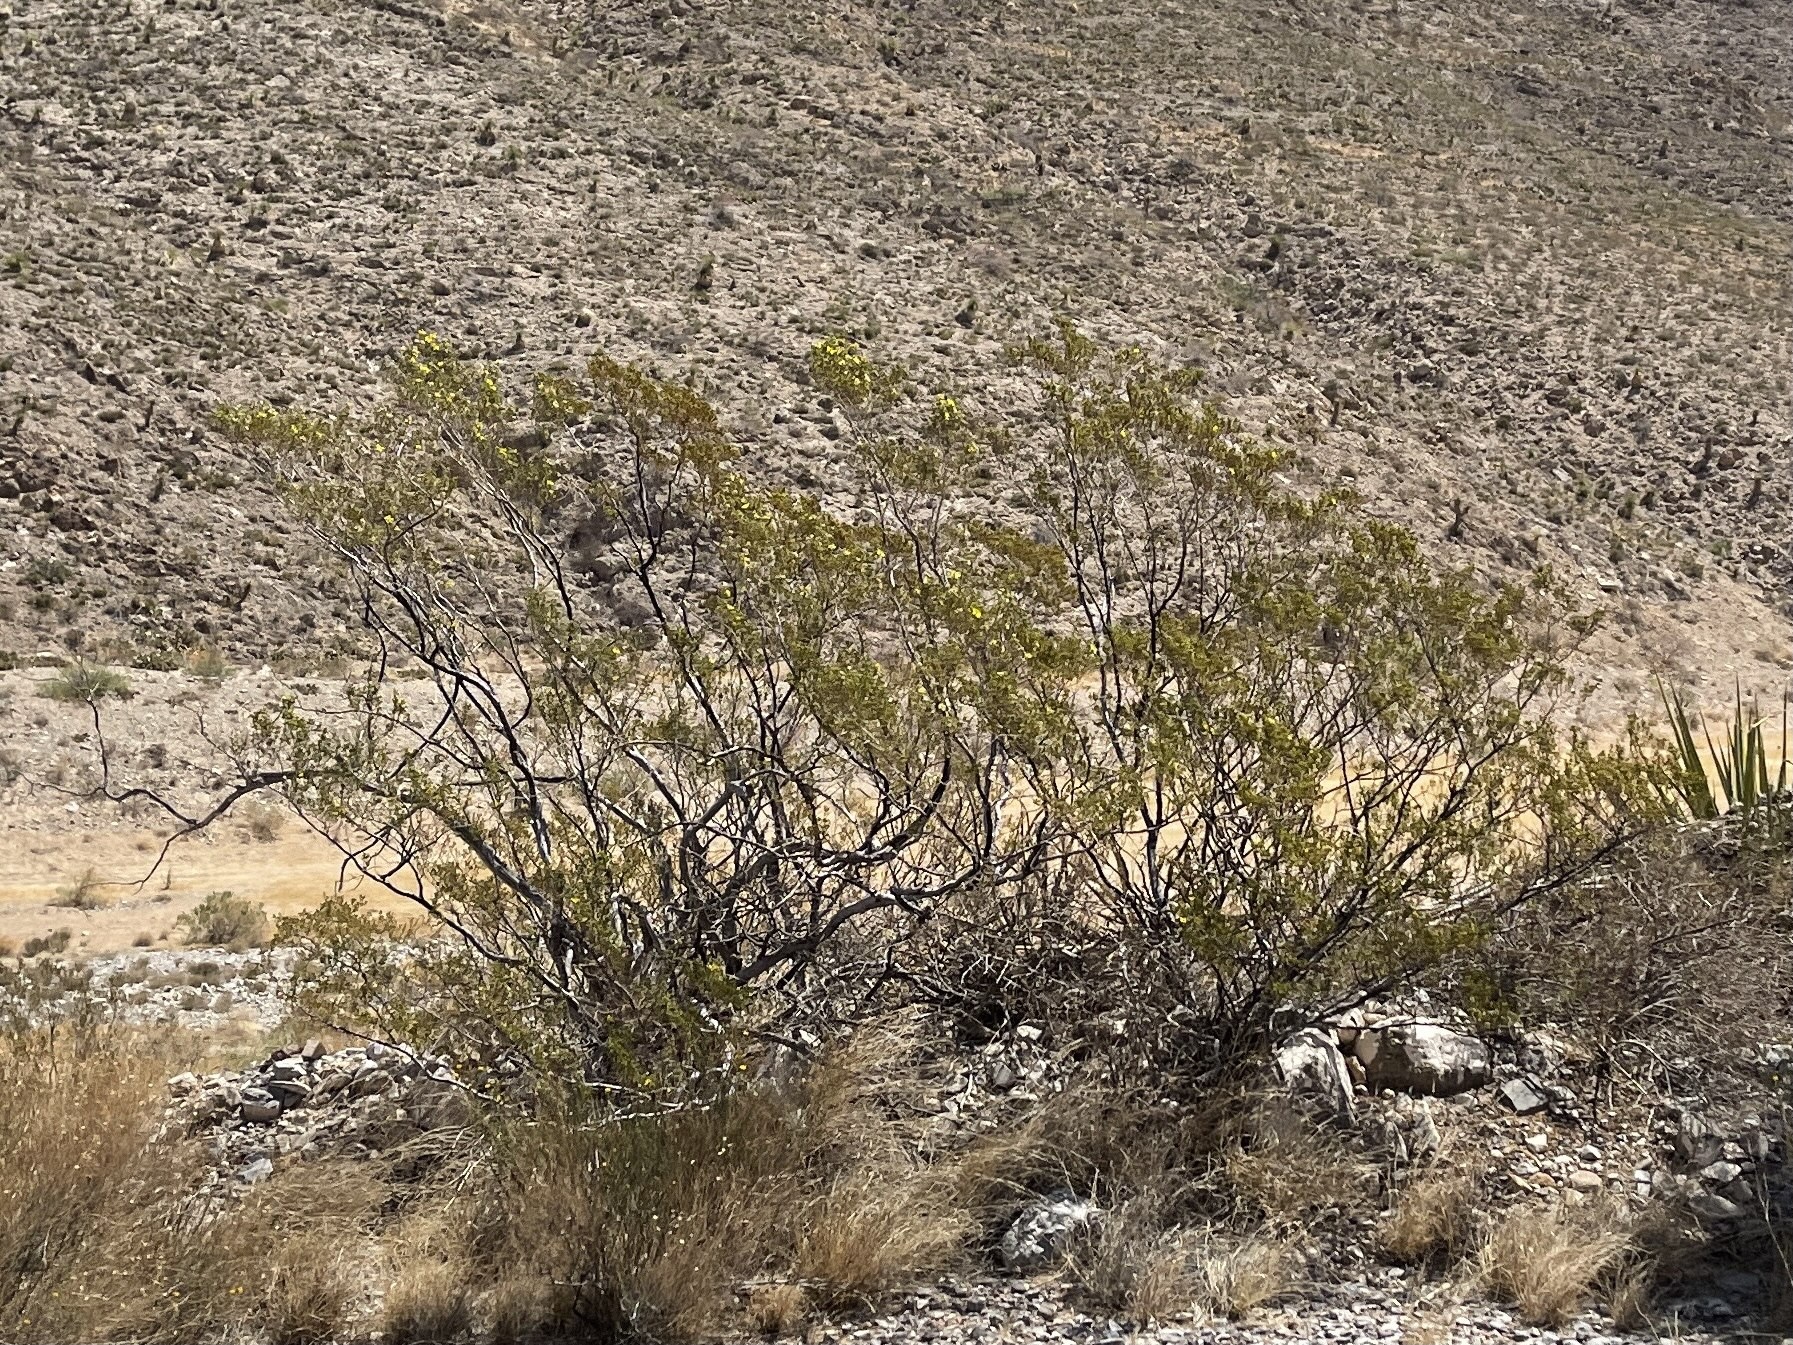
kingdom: Plantae
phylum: Tracheophyta
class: Magnoliopsida
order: Zygophyllales
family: Zygophyllaceae
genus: Larrea
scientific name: Larrea tridentata
